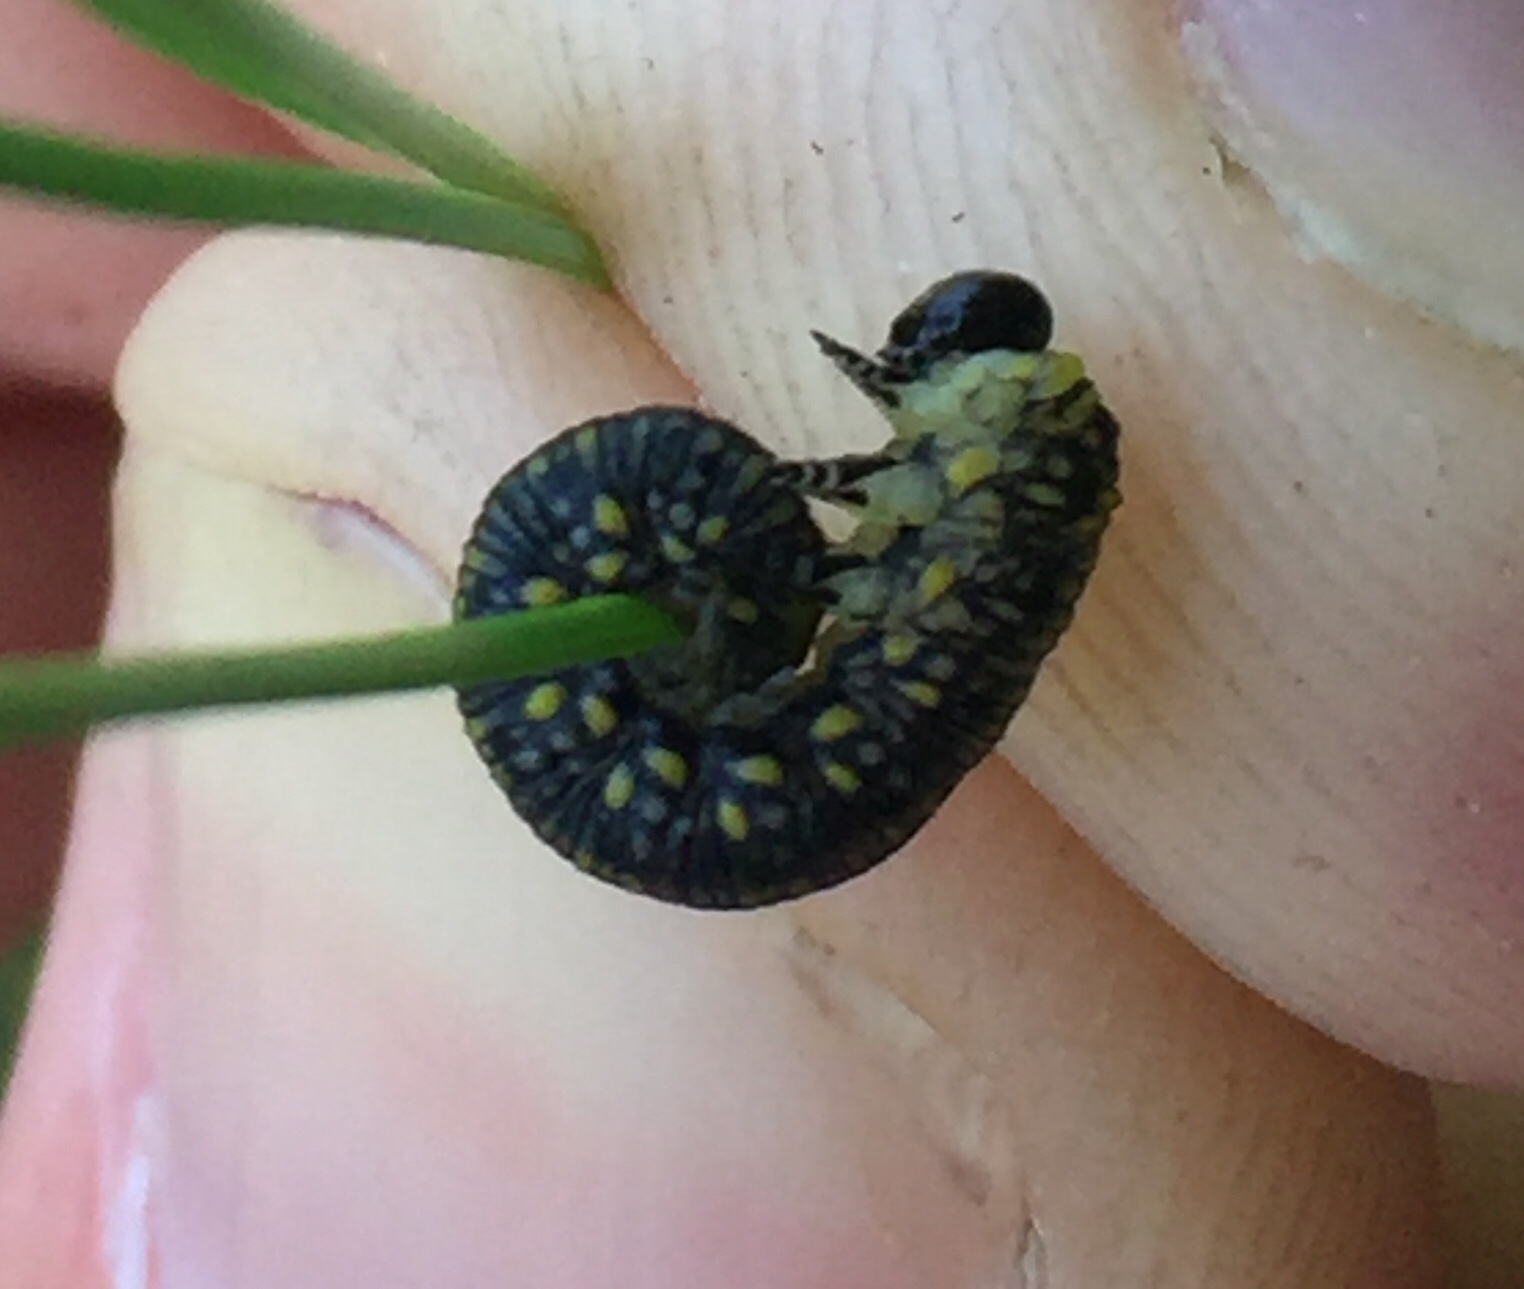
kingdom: Animalia
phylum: Arthropoda
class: Insecta
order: Hymenoptera
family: Diprionidae
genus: Diprion
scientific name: Diprion similis
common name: Pine sawfly
